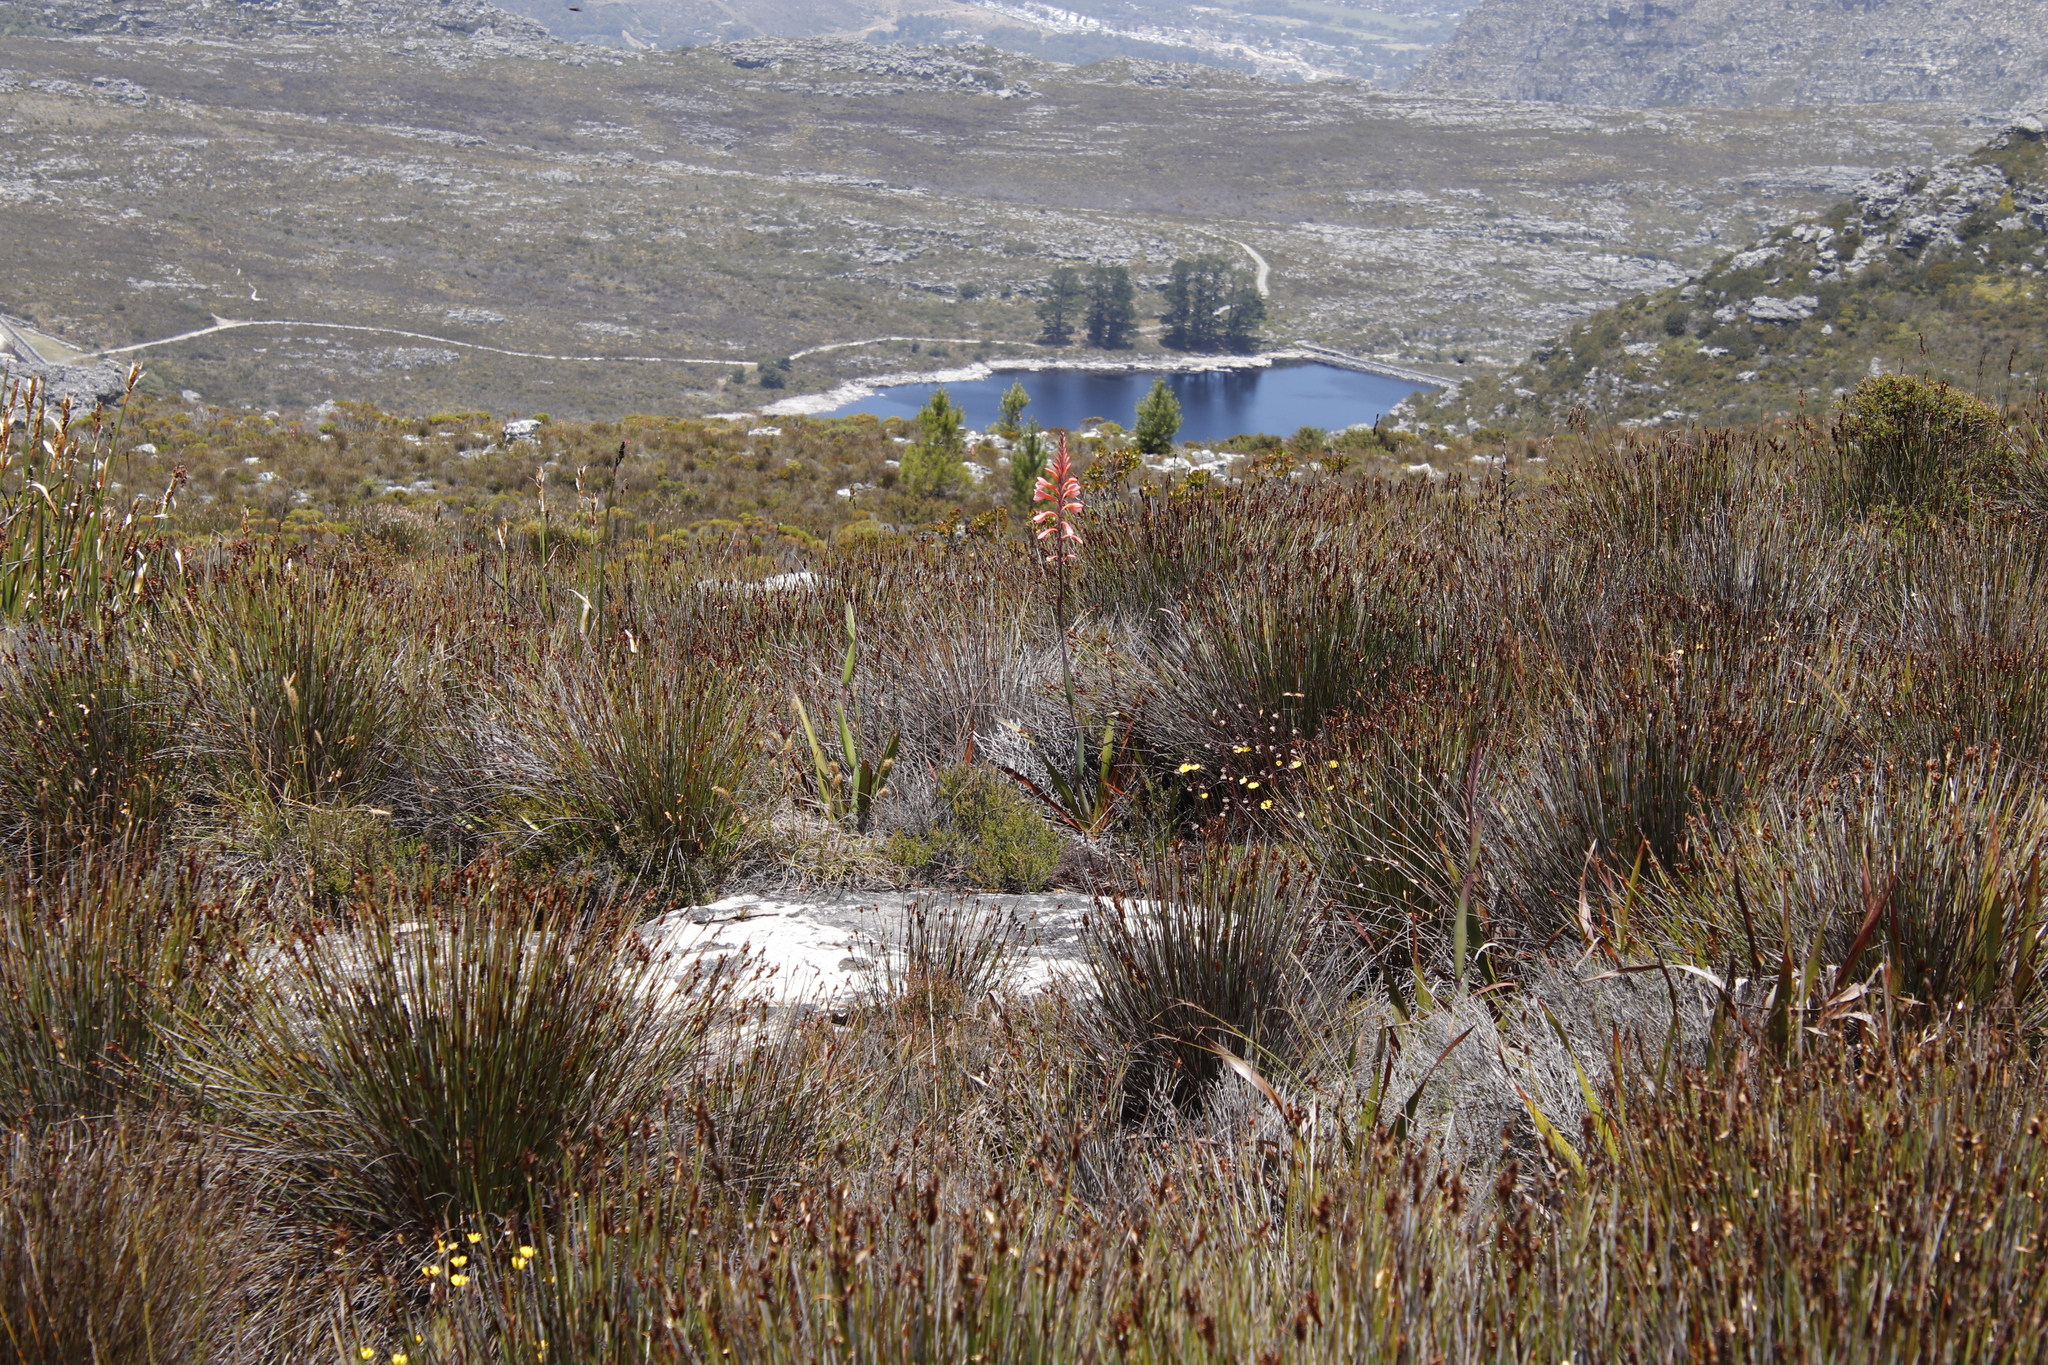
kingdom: Plantae
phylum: Tracheophyta
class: Liliopsida
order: Asparagales
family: Iridaceae
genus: Watsonia
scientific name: Watsonia tabularis
